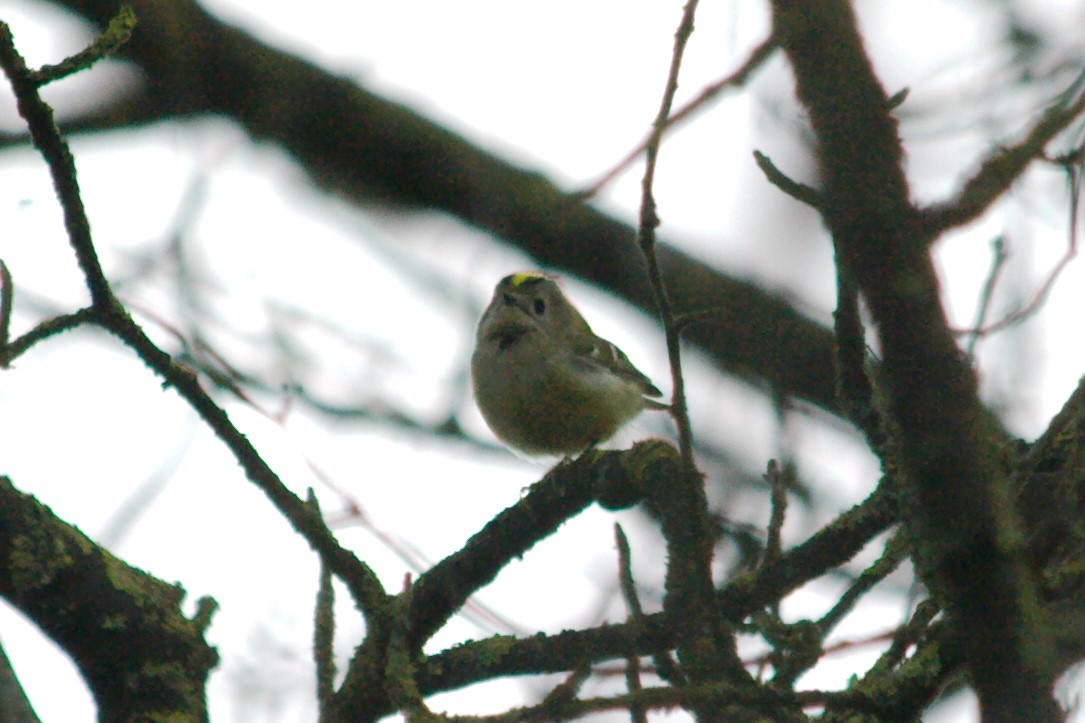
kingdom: Animalia
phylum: Chordata
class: Aves
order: Passeriformes
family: Regulidae
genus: Regulus
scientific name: Regulus regulus
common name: Goldcrest
